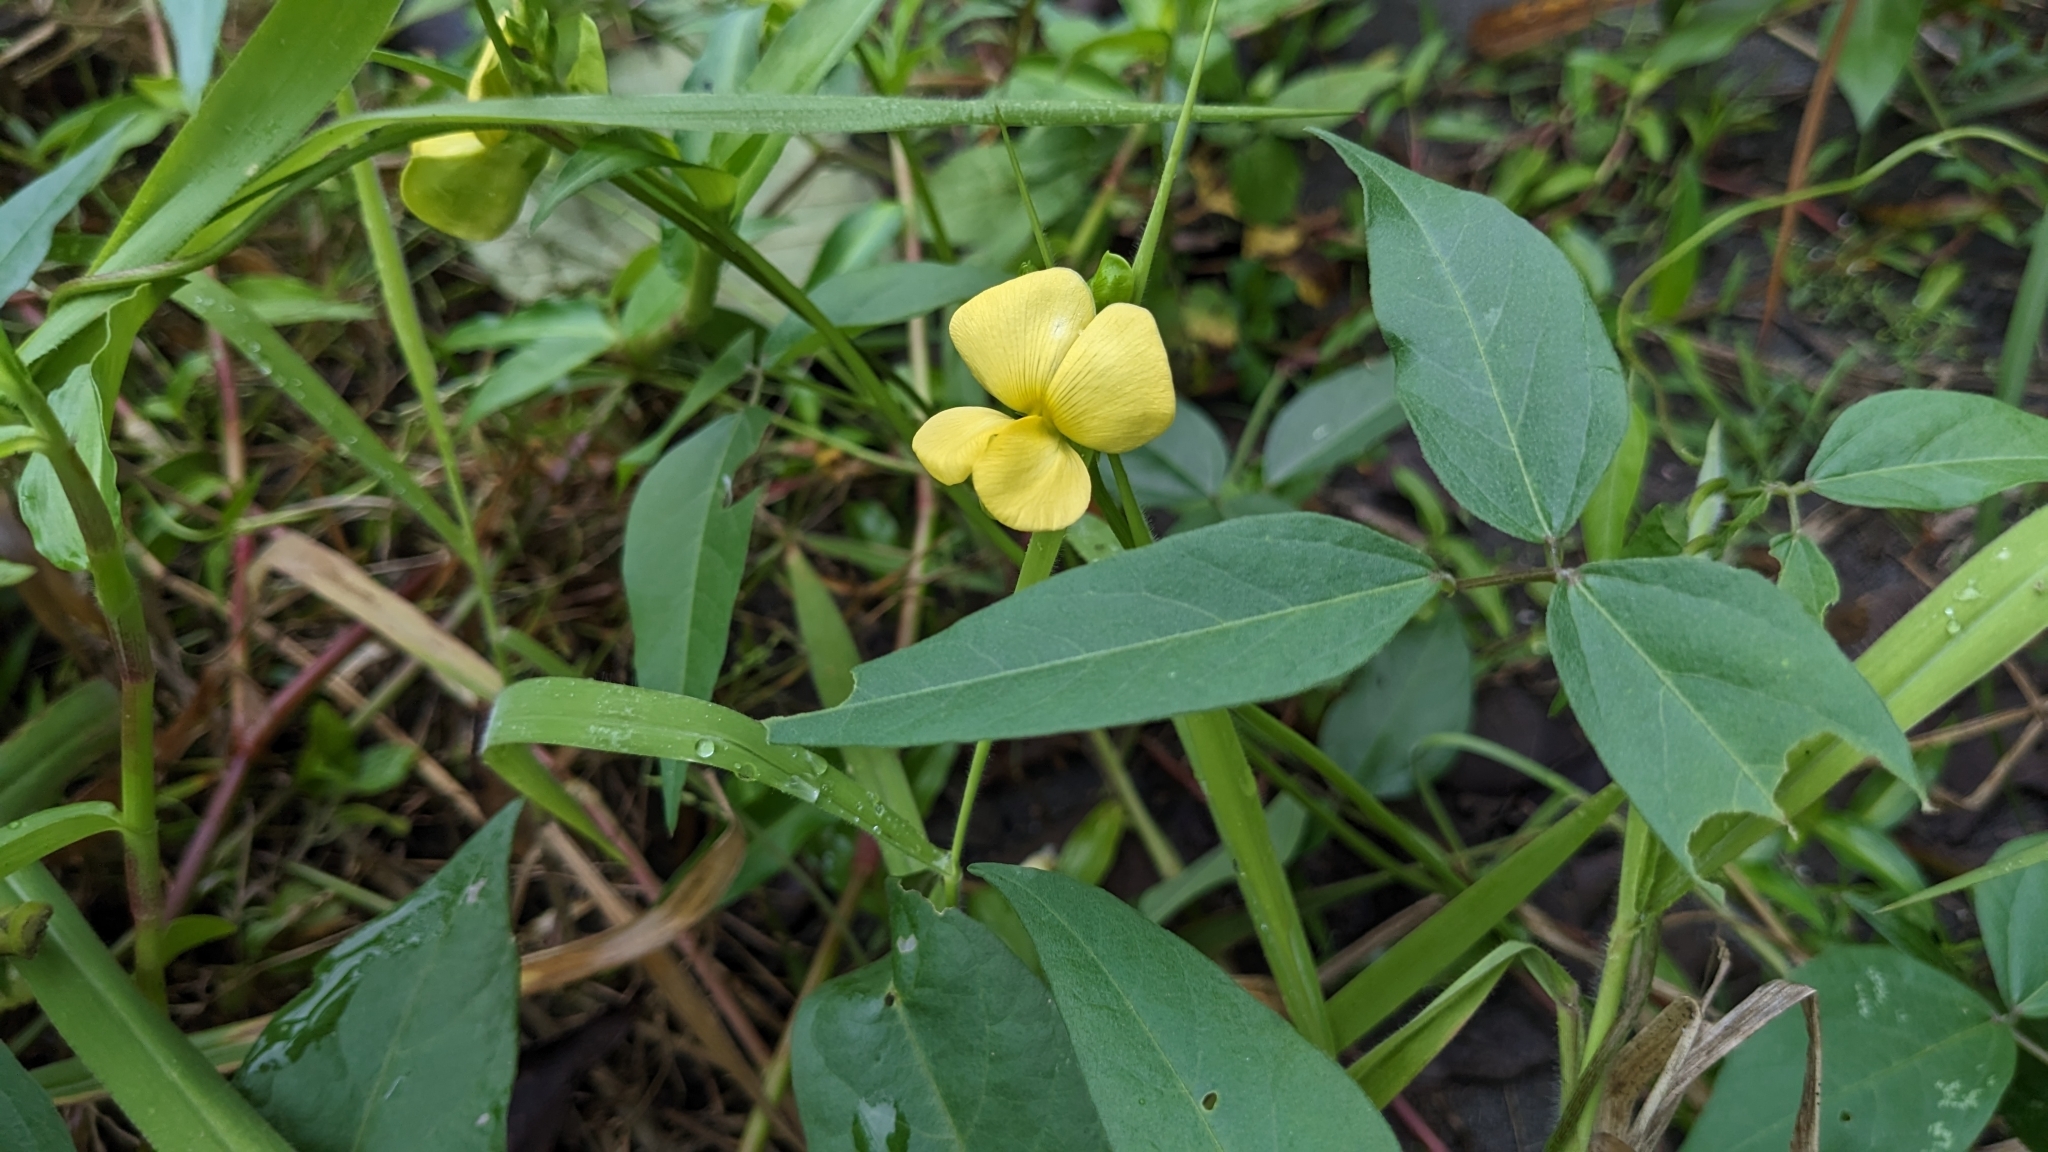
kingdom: Plantae
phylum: Tracheophyta
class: Magnoliopsida
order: Fabales
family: Fabaceae
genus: Vigna
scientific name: Vigna luteola
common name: Hairypod cowpea
